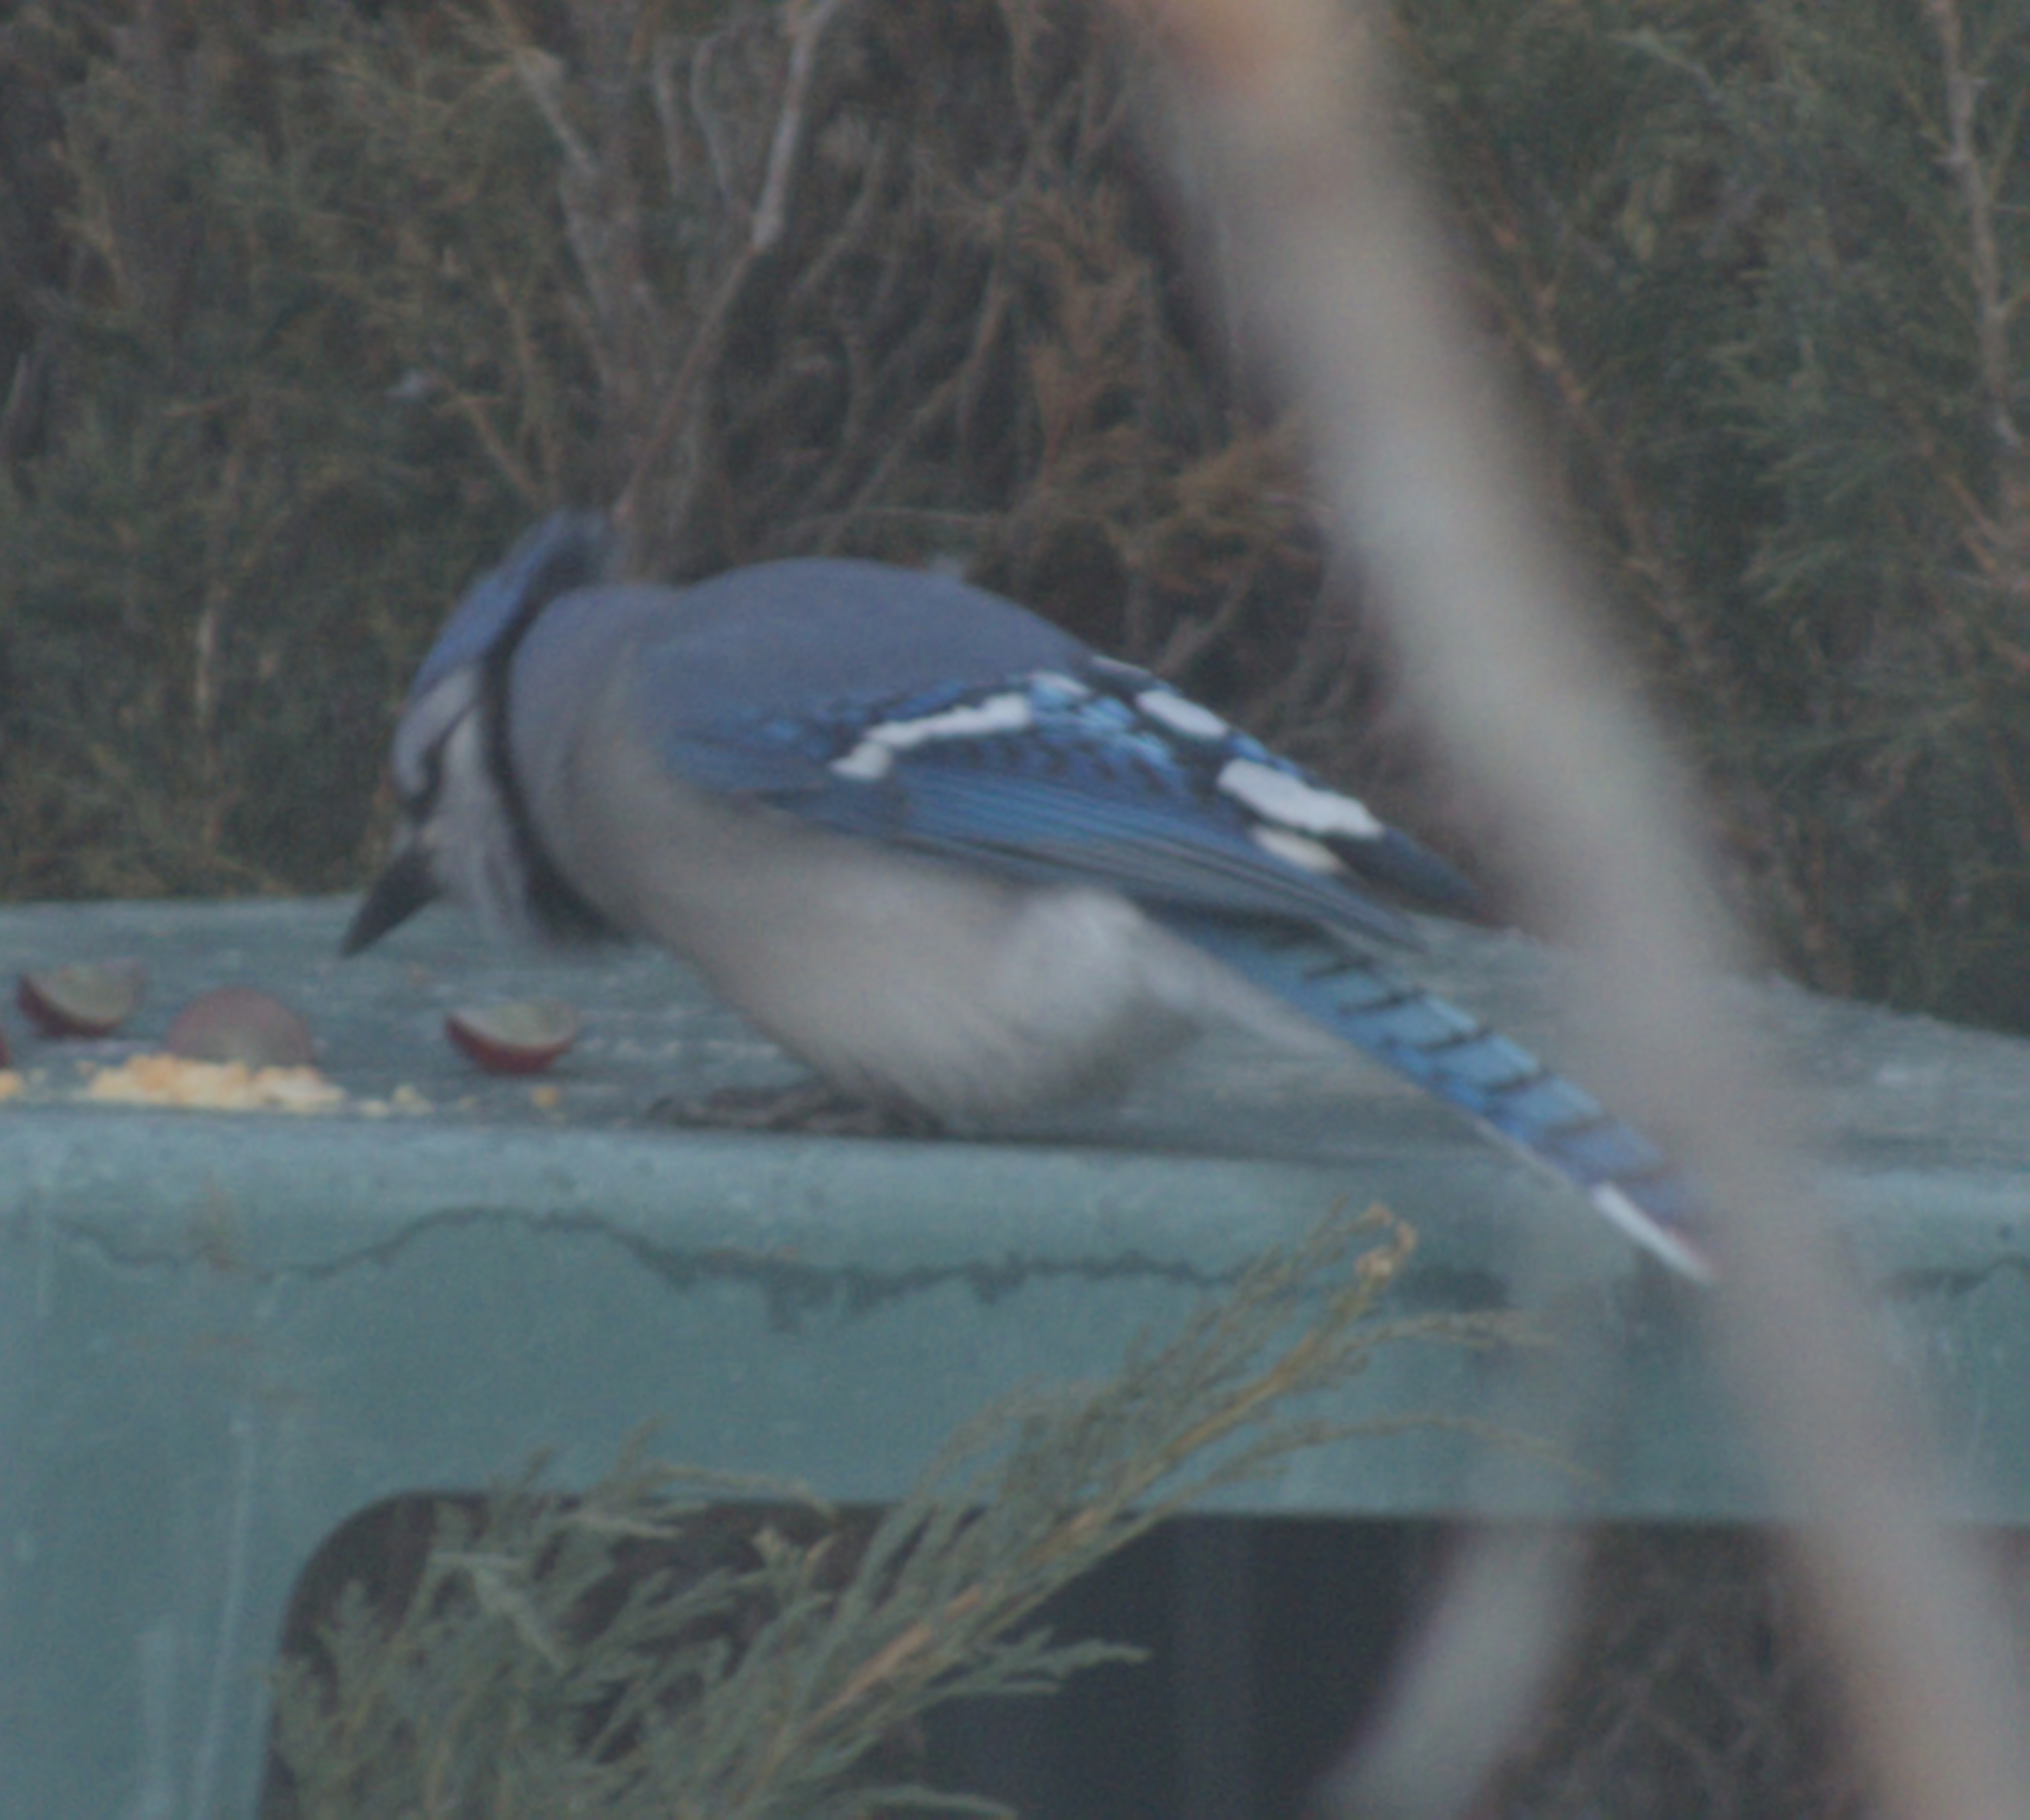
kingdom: Animalia
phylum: Chordata
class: Aves
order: Passeriformes
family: Corvidae
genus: Cyanocitta
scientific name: Cyanocitta cristata
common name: Blue jay
